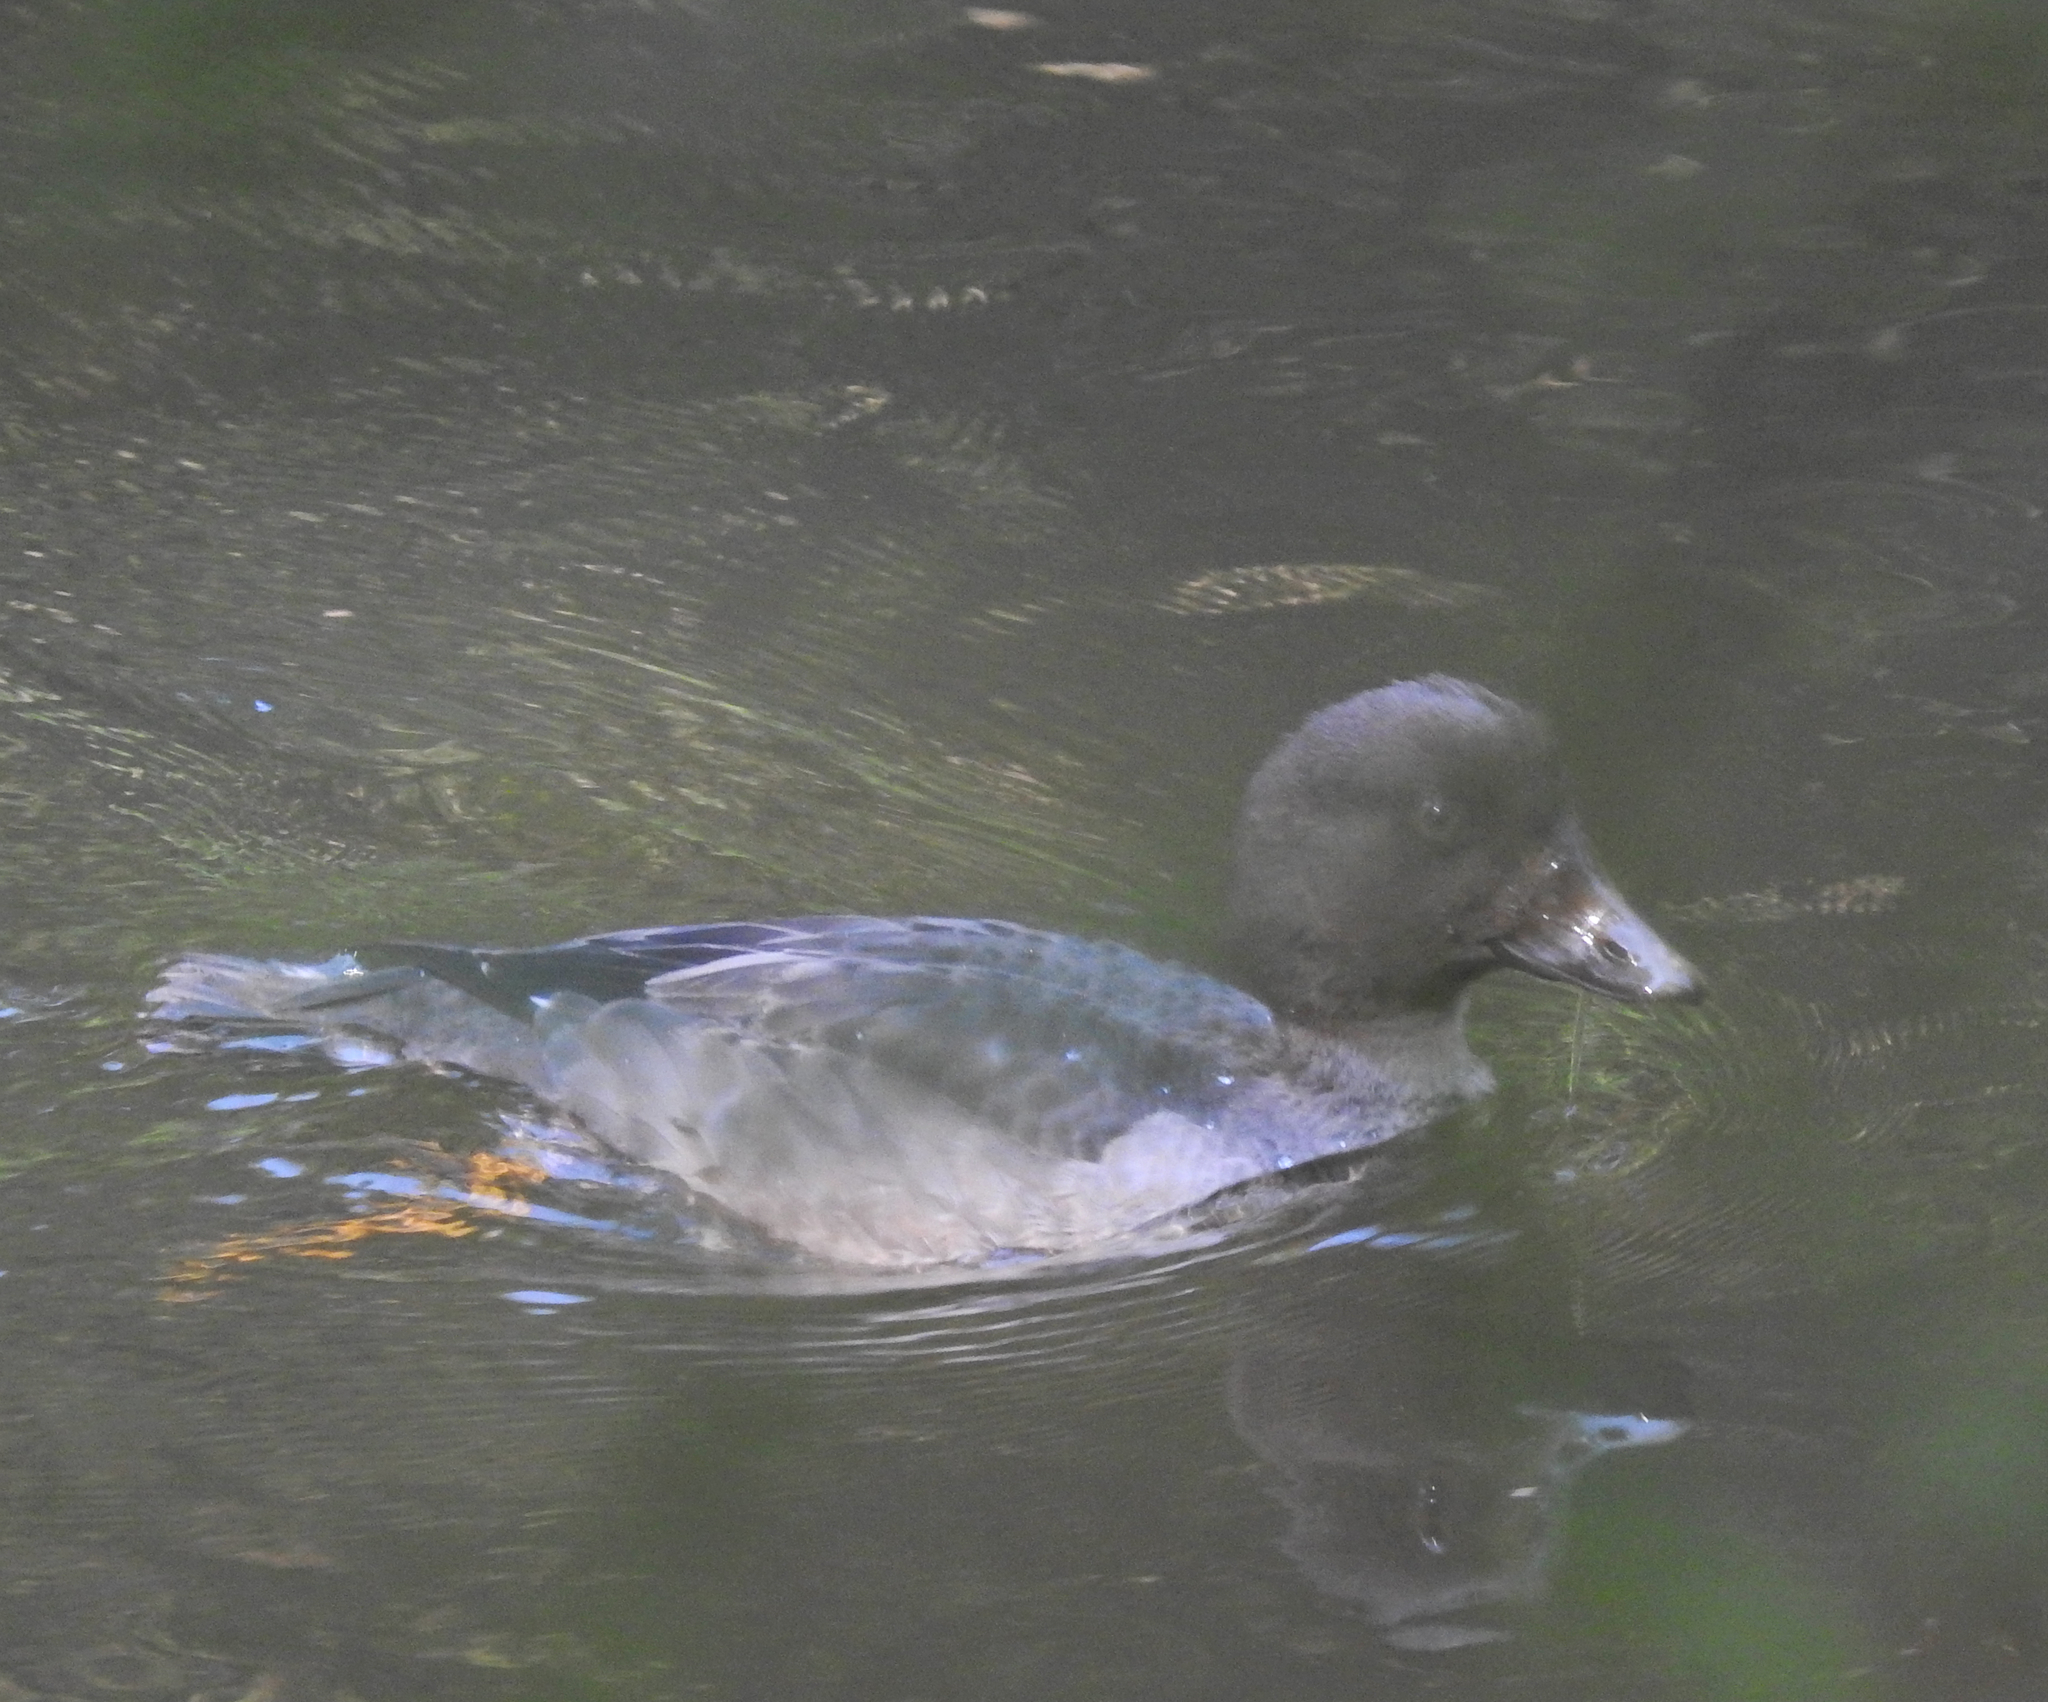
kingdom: Animalia
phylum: Chordata
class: Aves
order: Anseriformes
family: Anatidae
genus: Bucephala
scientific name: Bucephala clangula
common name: Common goldeneye
